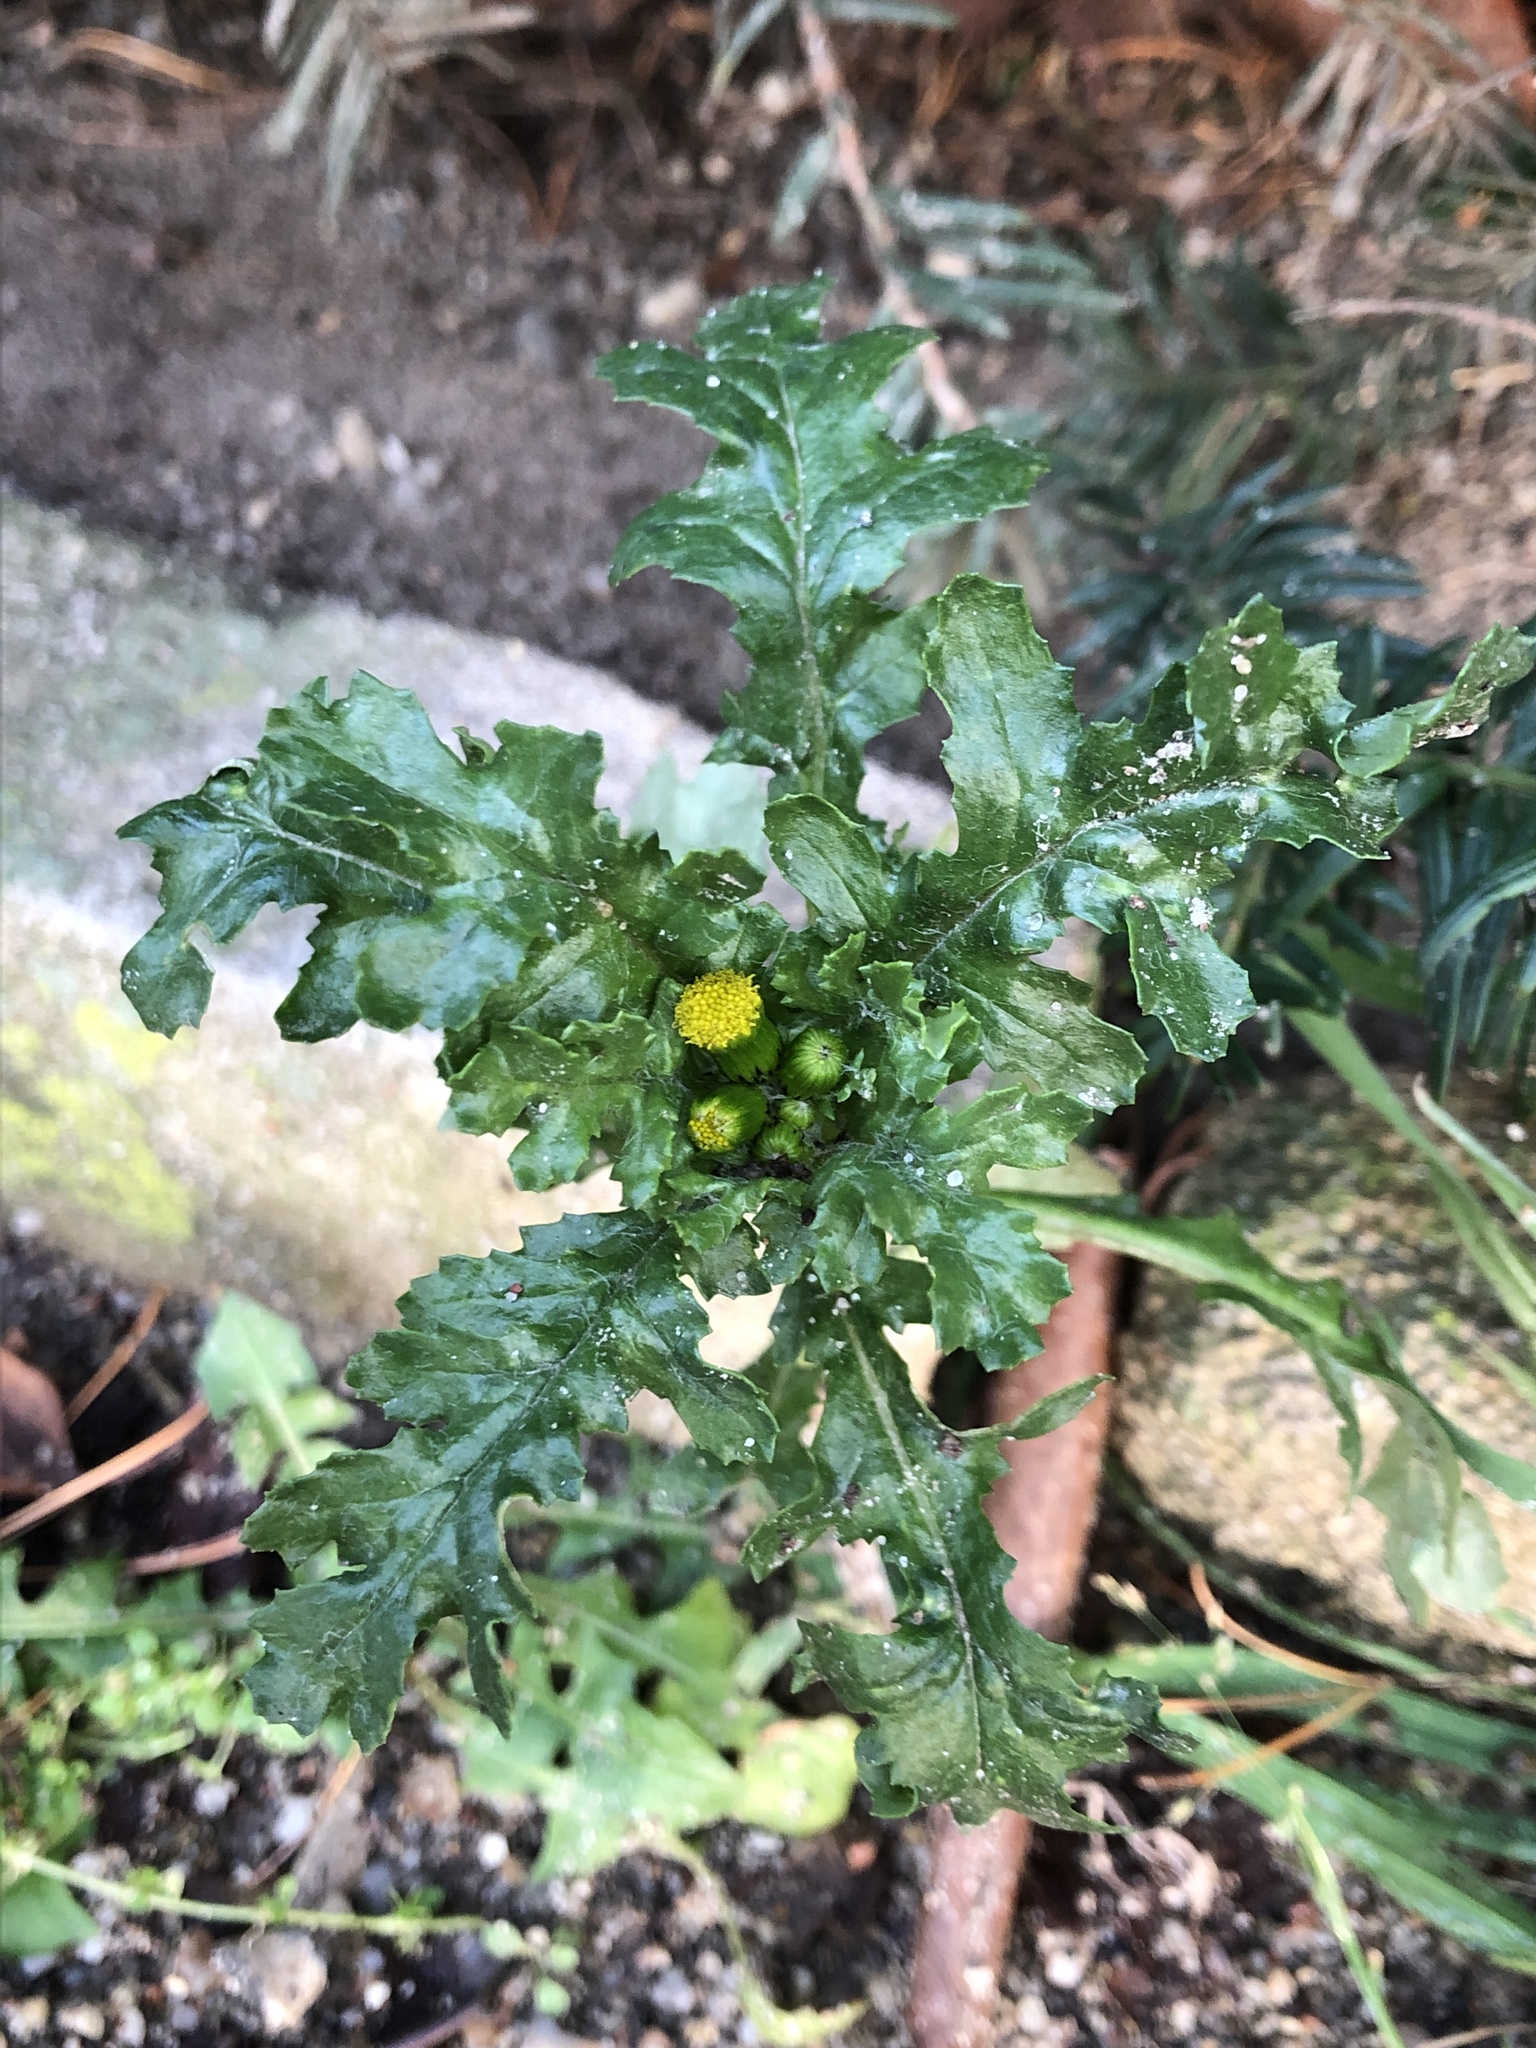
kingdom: Plantae
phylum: Tracheophyta
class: Magnoliopsida
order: Asterales
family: Asteraceae
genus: Senecio
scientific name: Senecio vulgaris
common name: Old-man-in-the-spring
